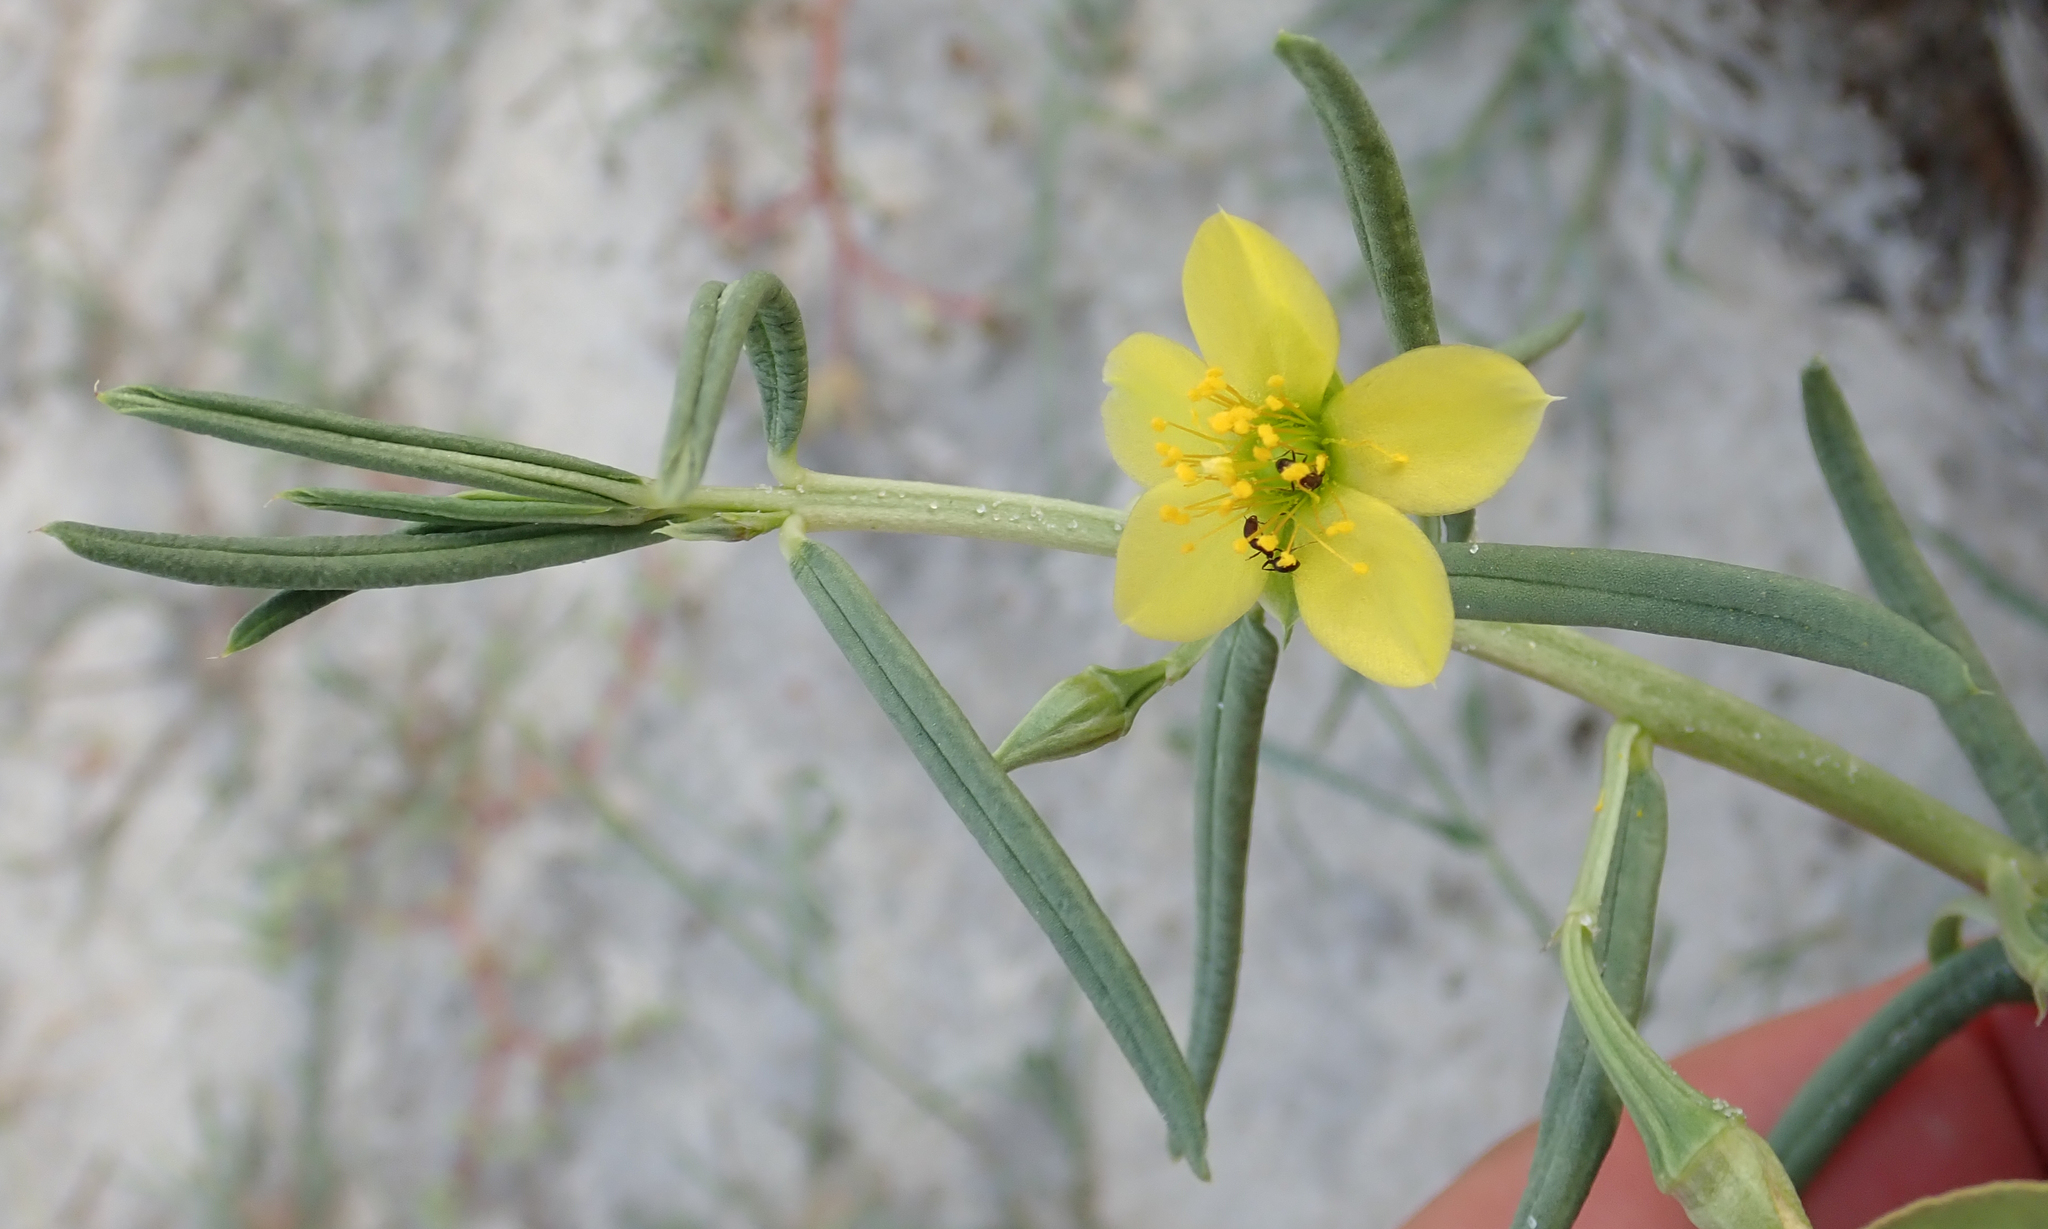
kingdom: Plantae
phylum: Tracheophyta
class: Magnoliopsida
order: Caryophyllales
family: Talinaceae
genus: Talinum
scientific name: Talinum caffrum
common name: Flameflower
